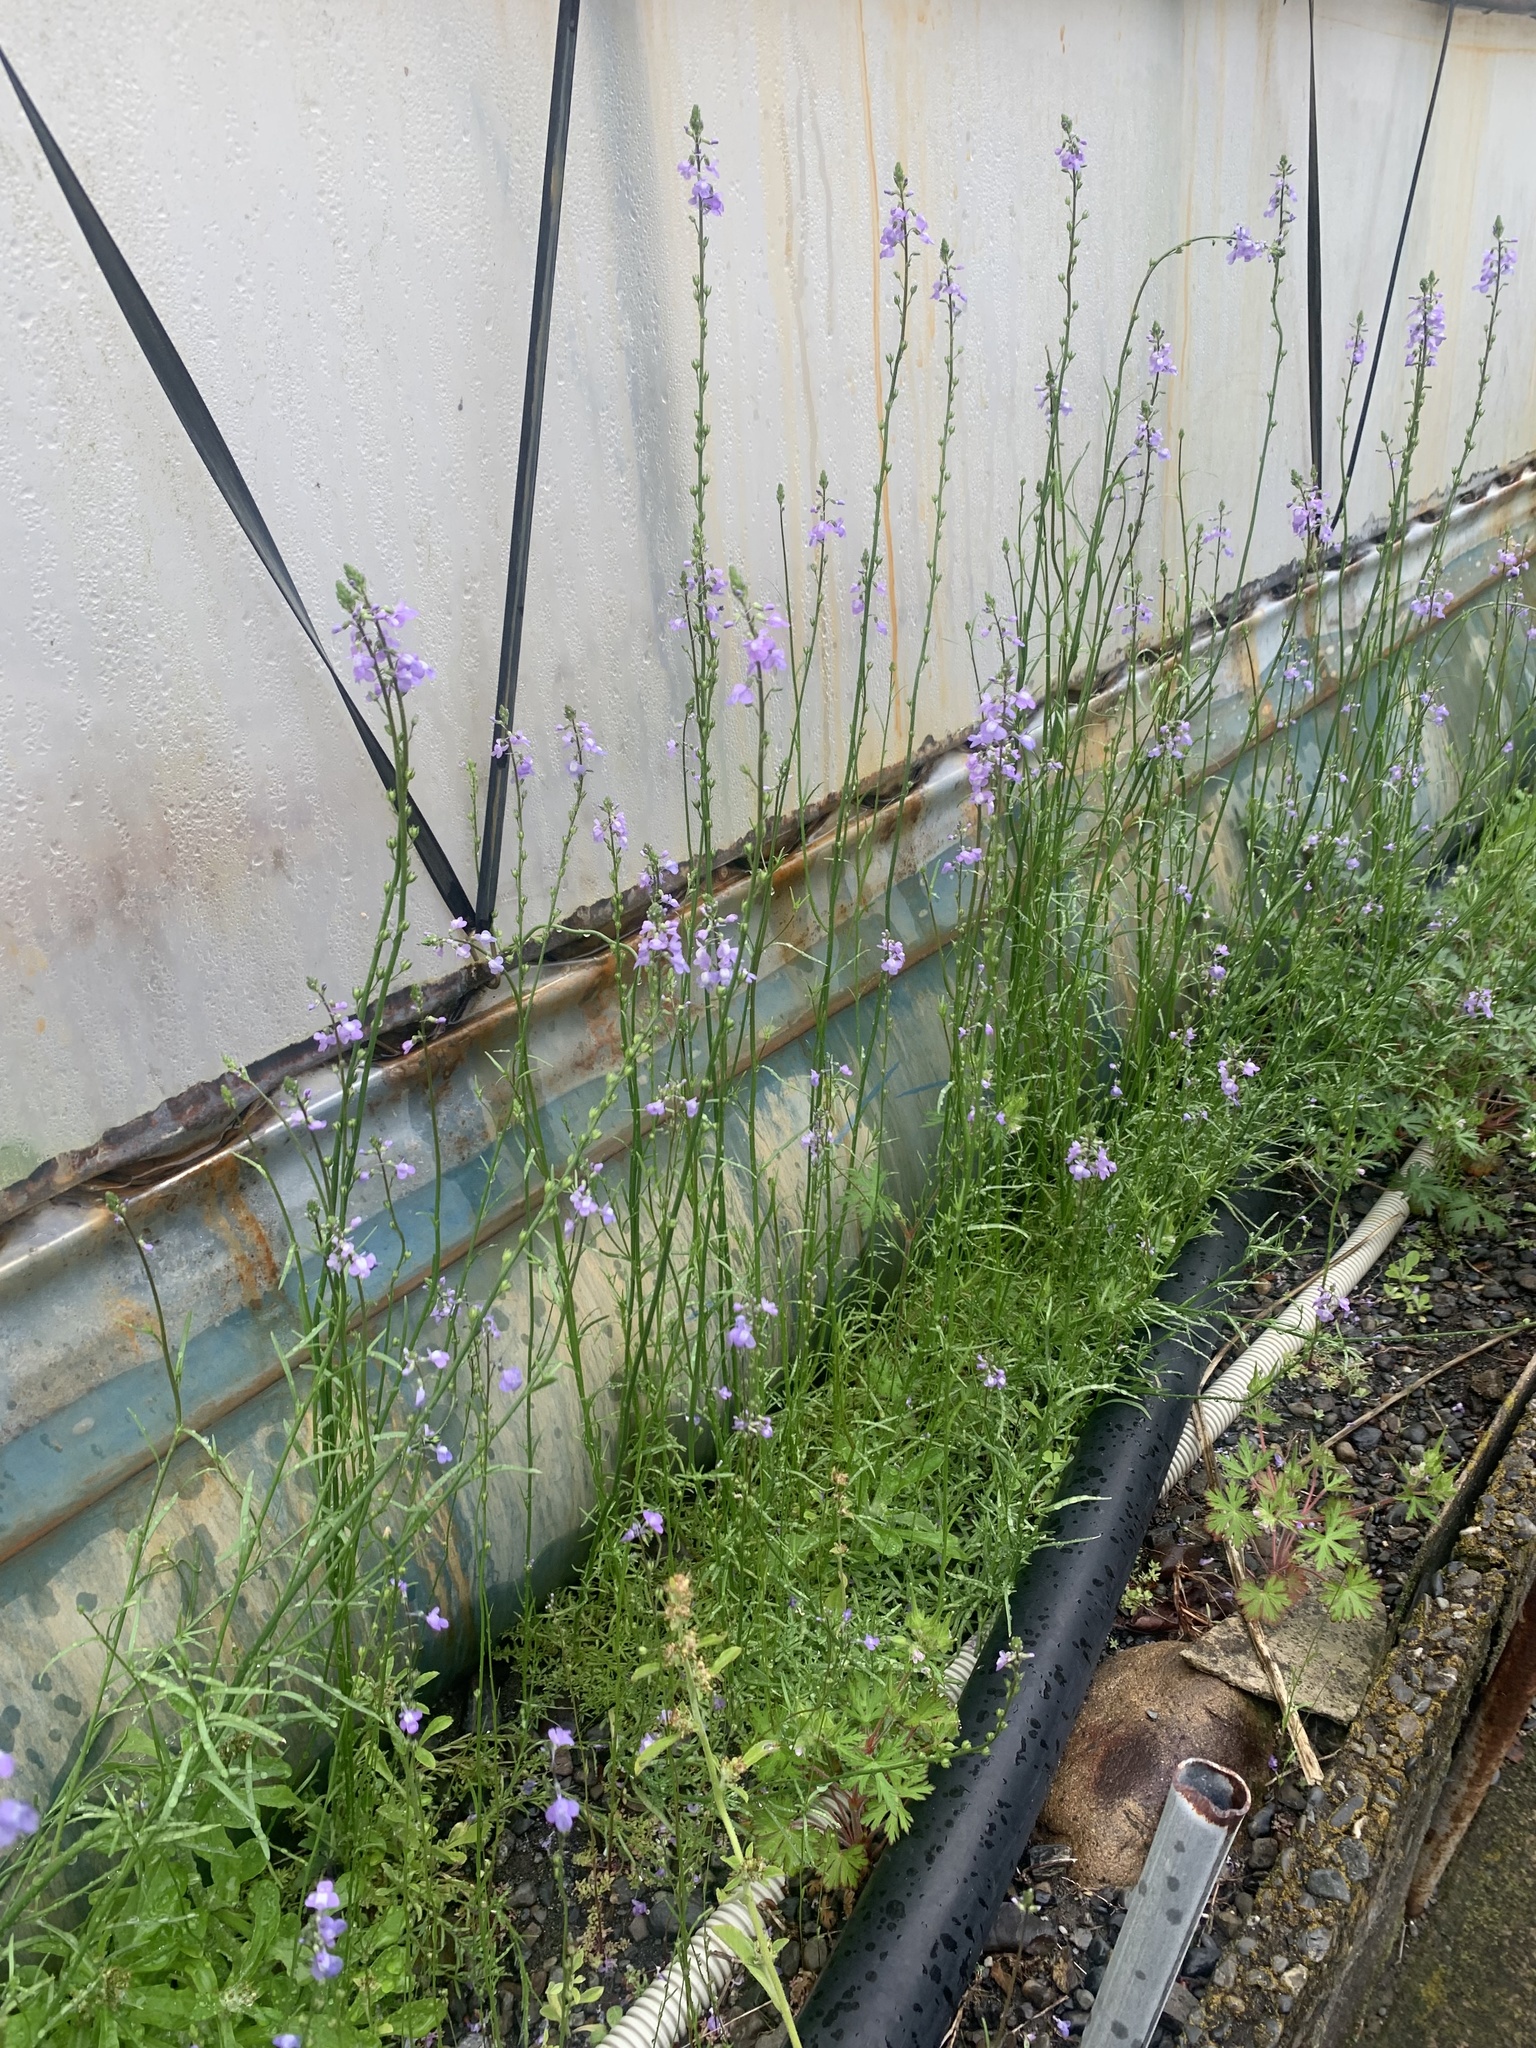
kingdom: Plantae
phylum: Tracheophyta
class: Magnoliopsida
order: Lamiales
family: Plantaginaceae
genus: Nuttallanthus
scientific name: Nuttallanthus canadensis
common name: Blue toadflax
